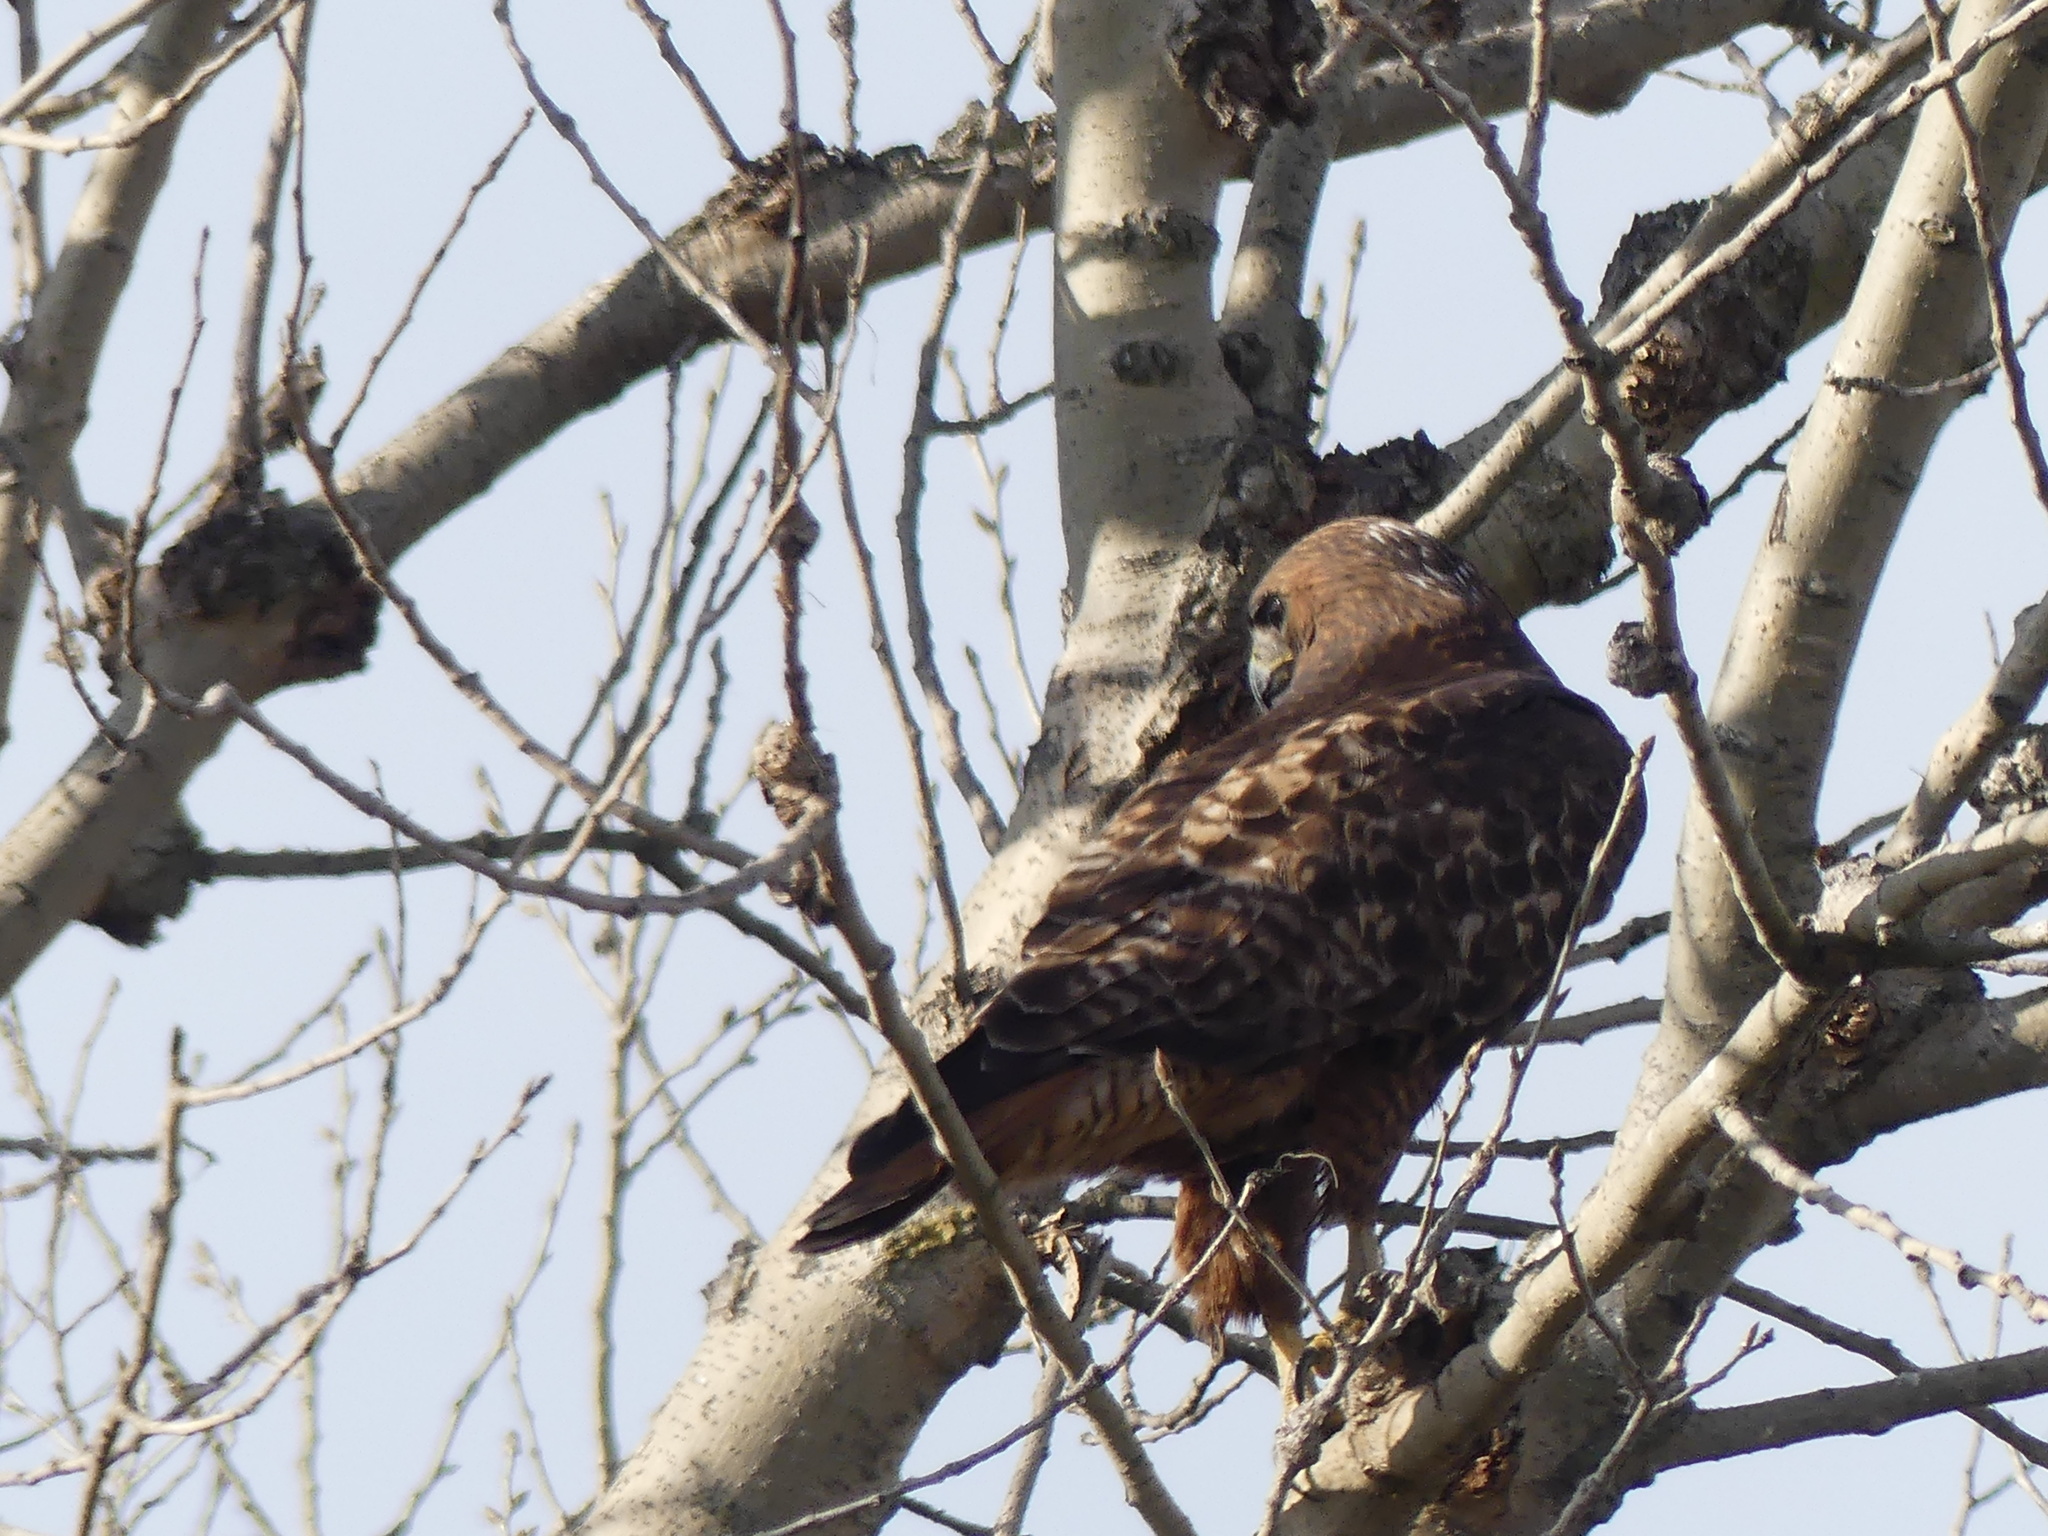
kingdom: Animalia
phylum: Chordata
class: Aves
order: Accipitriformes
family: Accipitridae
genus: Buteo
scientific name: Buteo jamaicensis
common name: Red-tailed hawk
